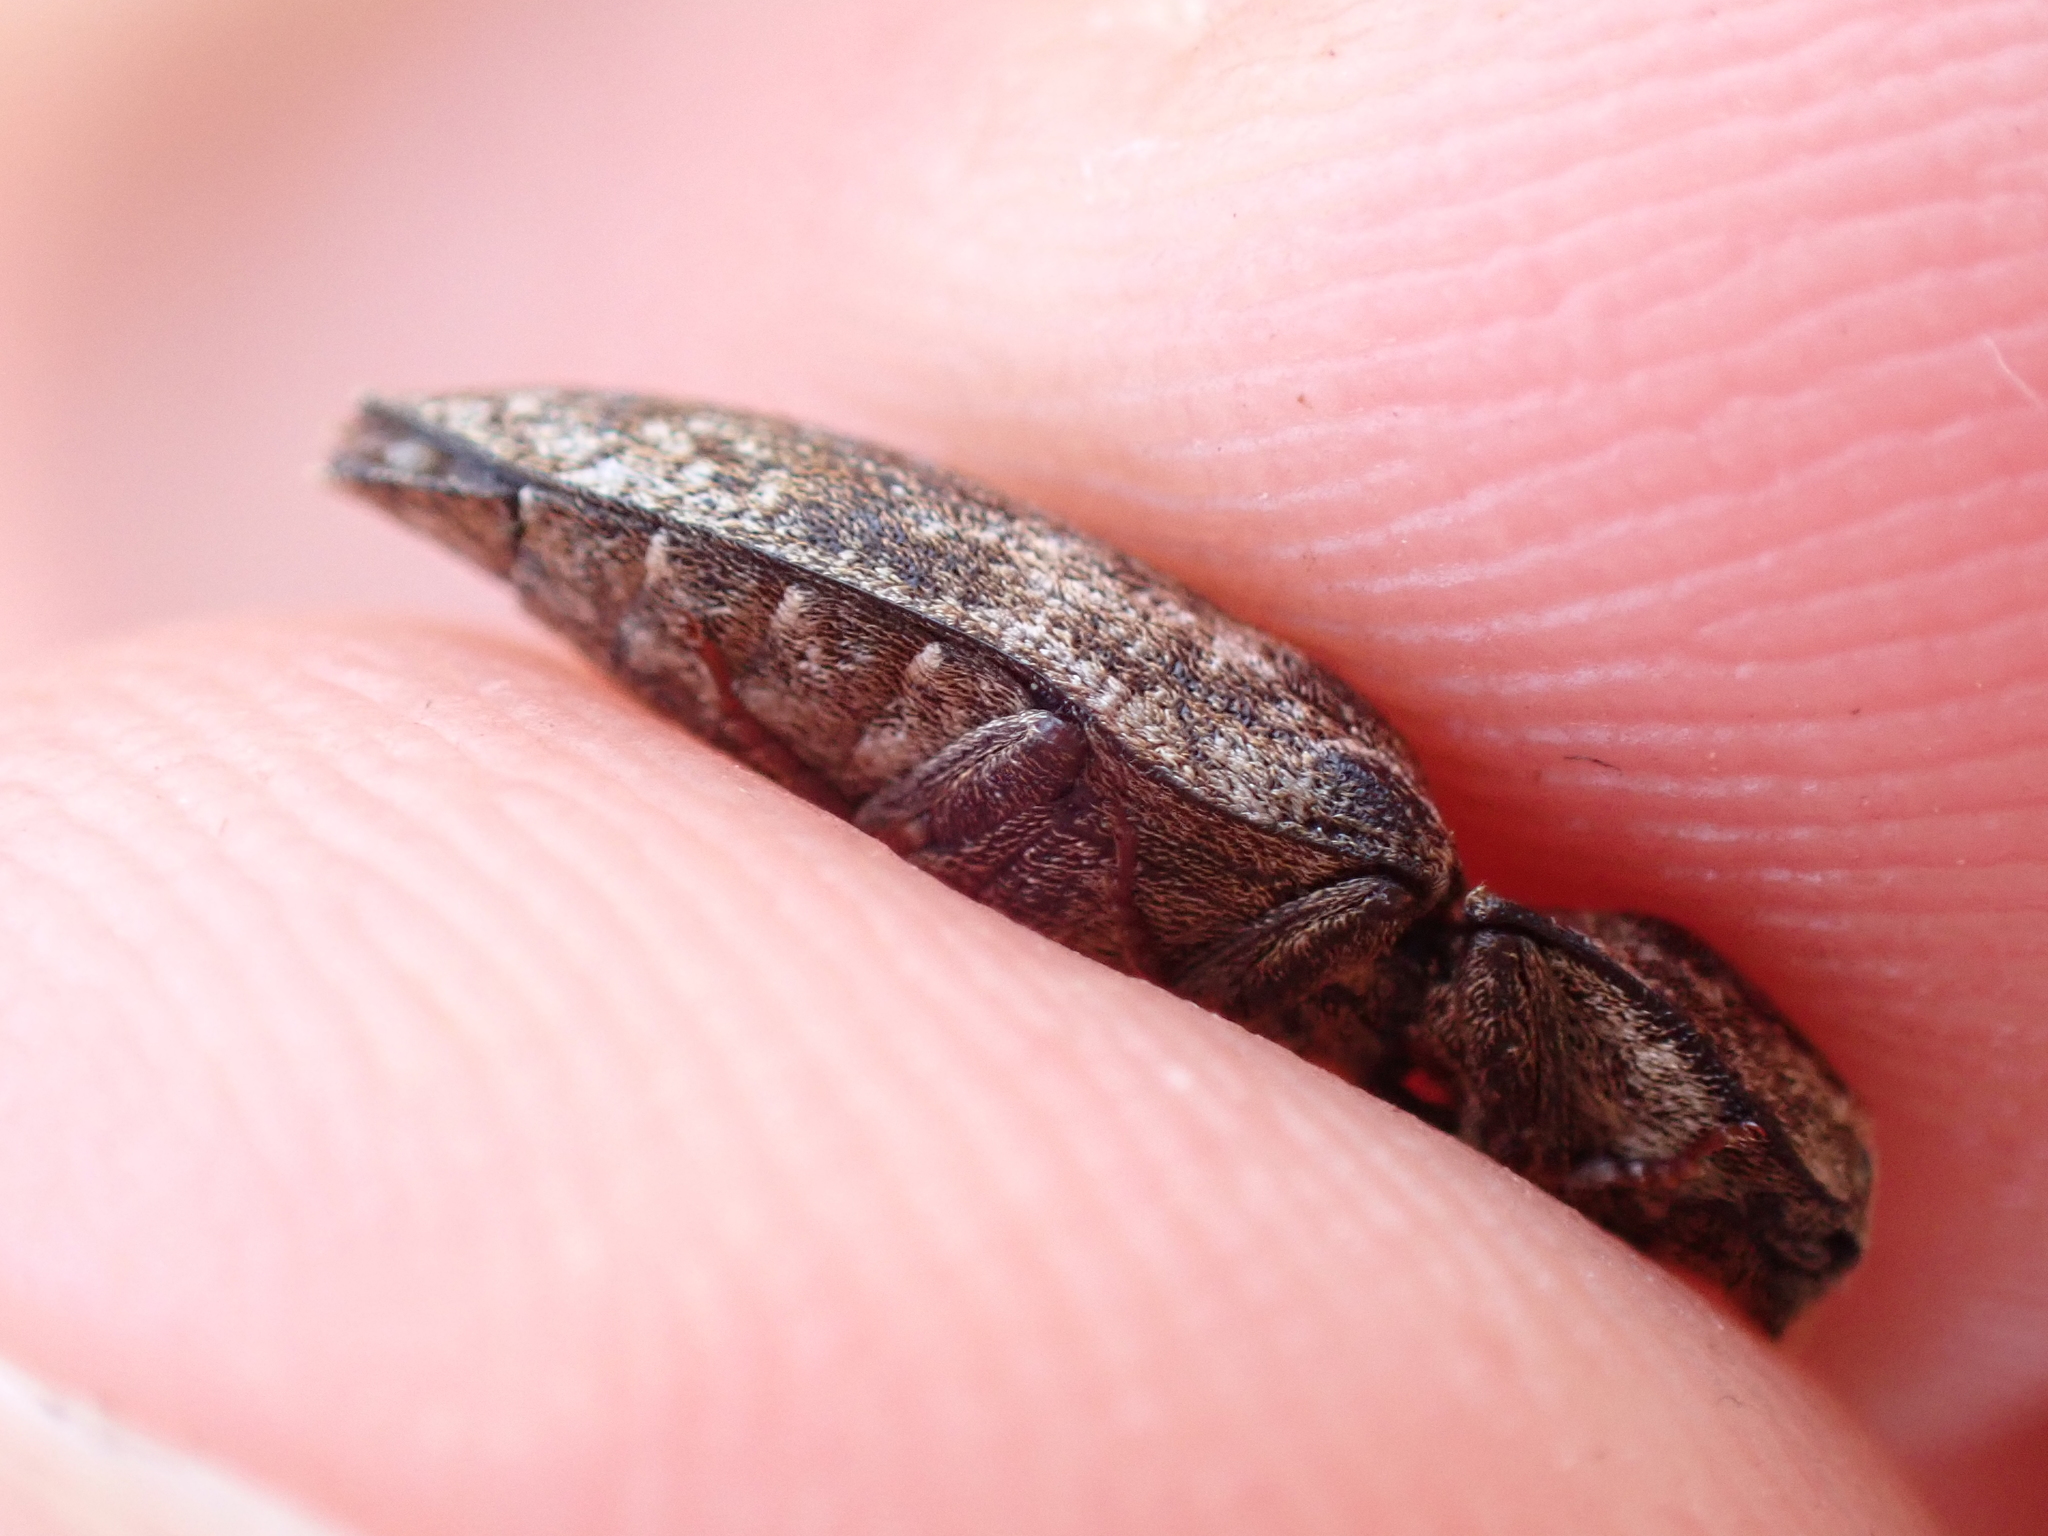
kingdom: Animalia
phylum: Arthropoda
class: Insecta
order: Coleoptera
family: Elateridae
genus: Agrypnus
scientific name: Agrypnus murinus
